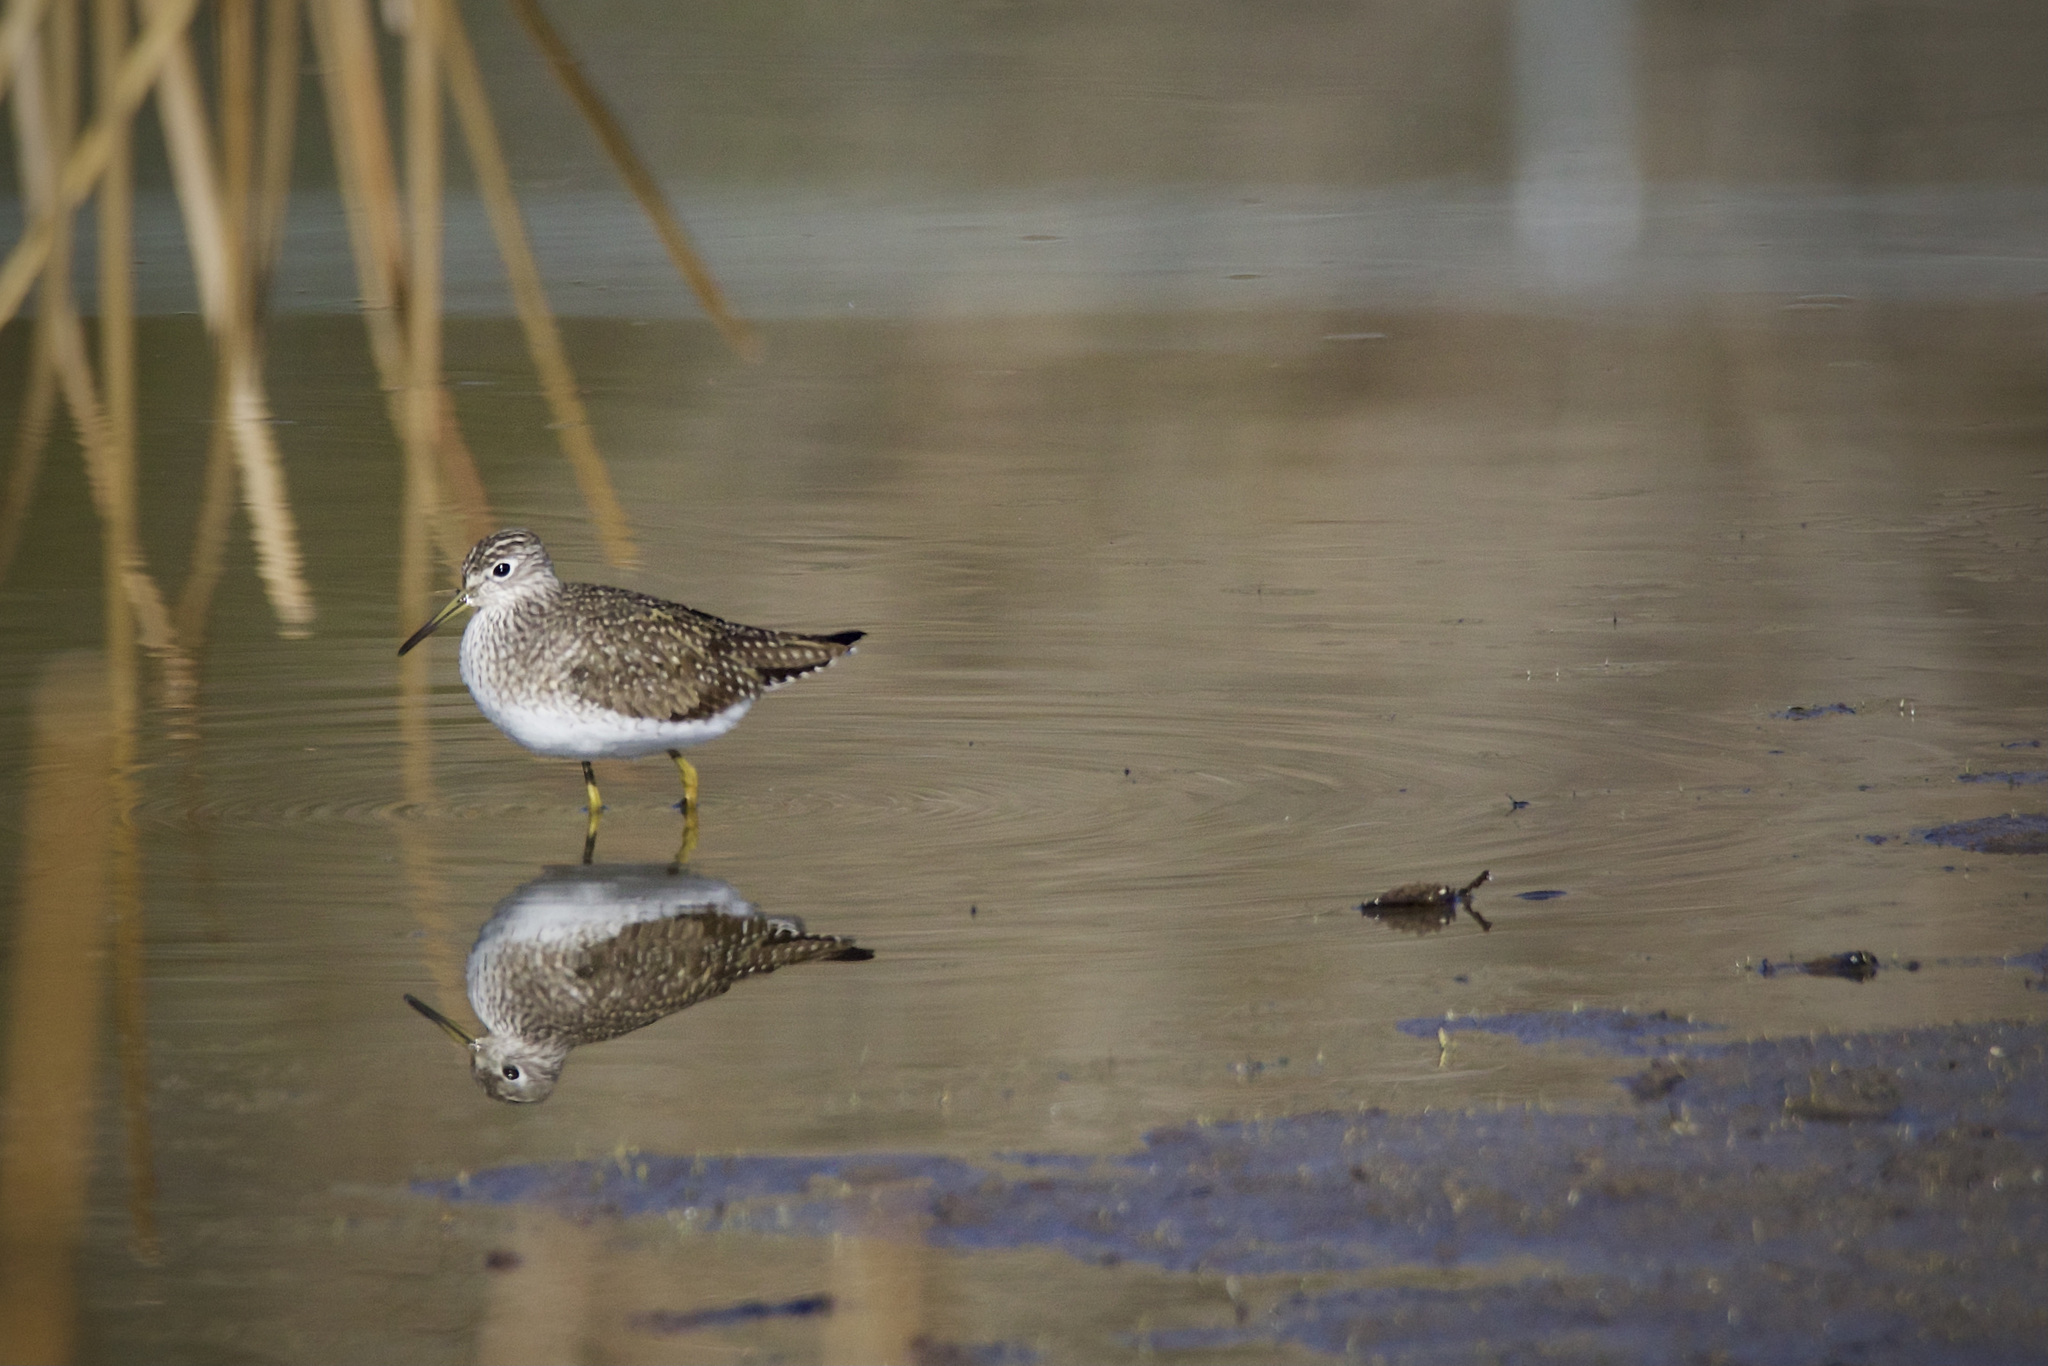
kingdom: Animalia
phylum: Chordata
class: Aves
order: Charadriiformes
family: Scolopacidae
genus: Tringa
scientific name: Tringa solitaria
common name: Solitary sandpiper
